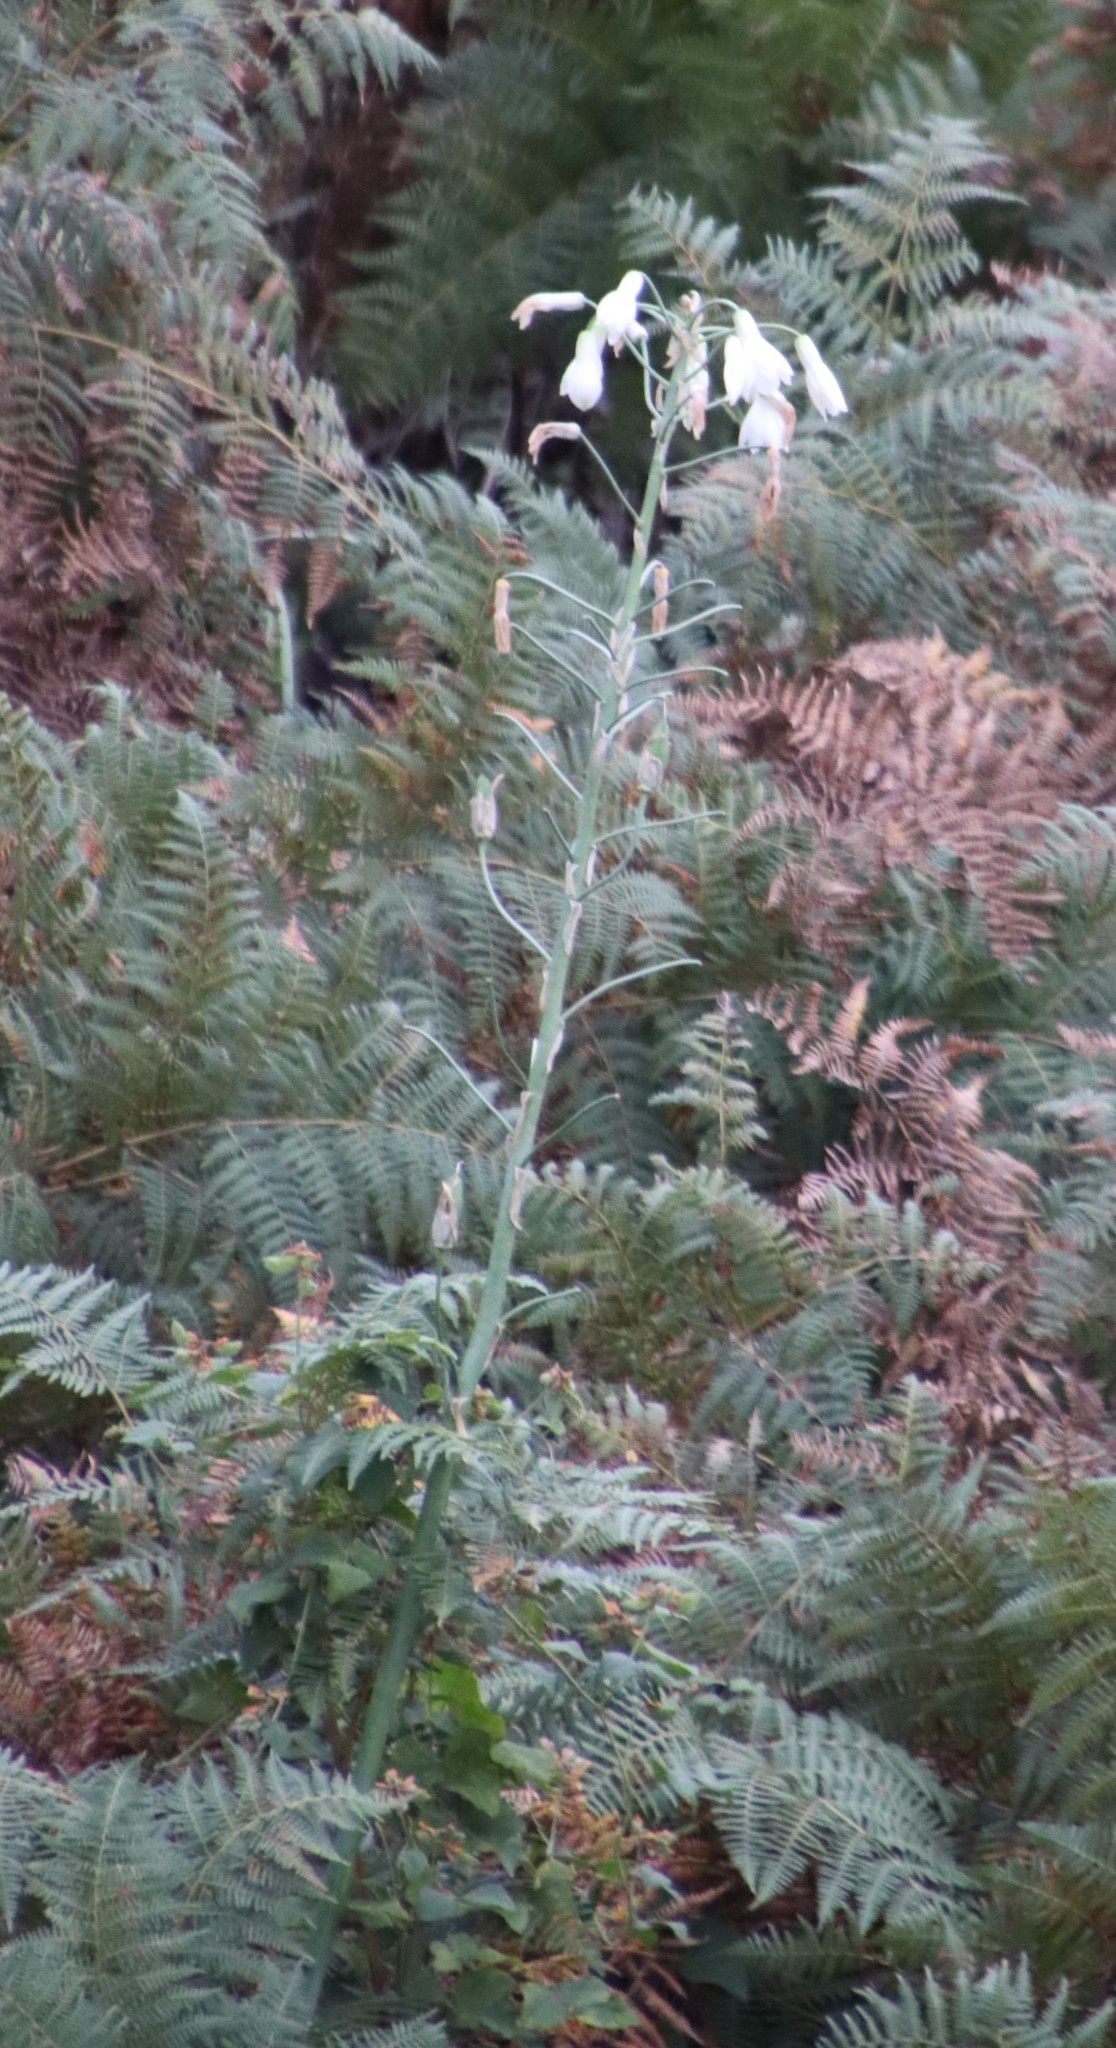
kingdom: Plantae
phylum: Tracheophyta
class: Liliopsida
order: Asparagales
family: Asparagaceae
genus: Ornithogalum
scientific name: Ornithogalum candicans
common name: Summer-hyacinth
